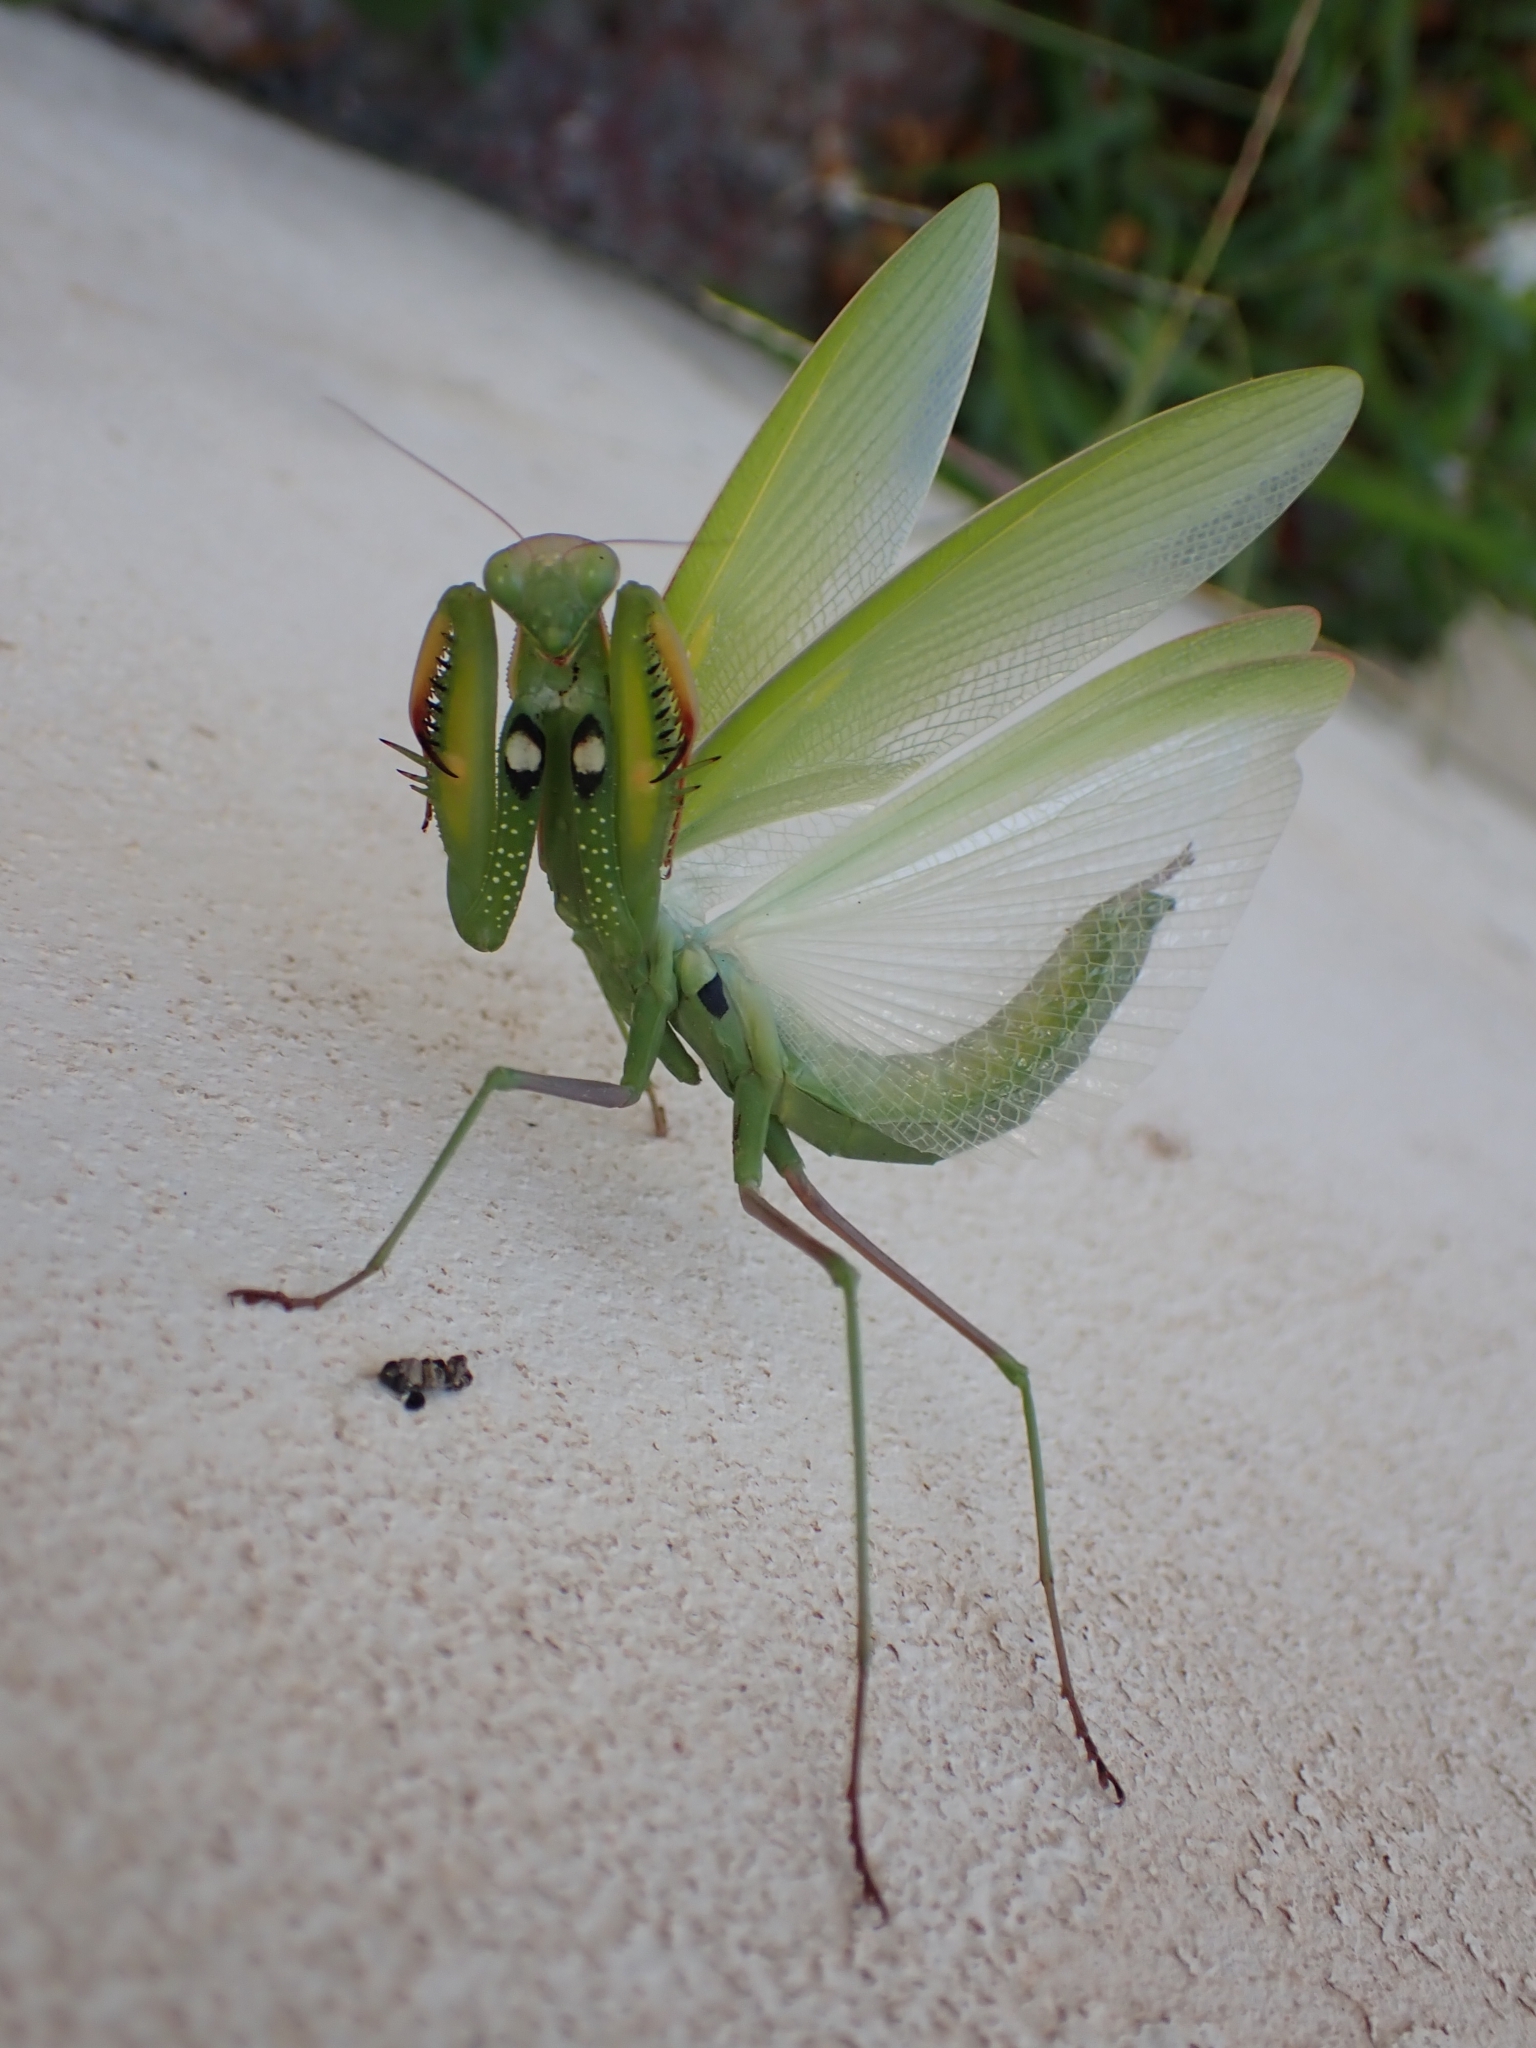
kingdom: Animalia
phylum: Arthropoda
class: Insecta
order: Mantodea
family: Mantidae
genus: Mantis
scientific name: Mantis religiosa
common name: Praying mantis
